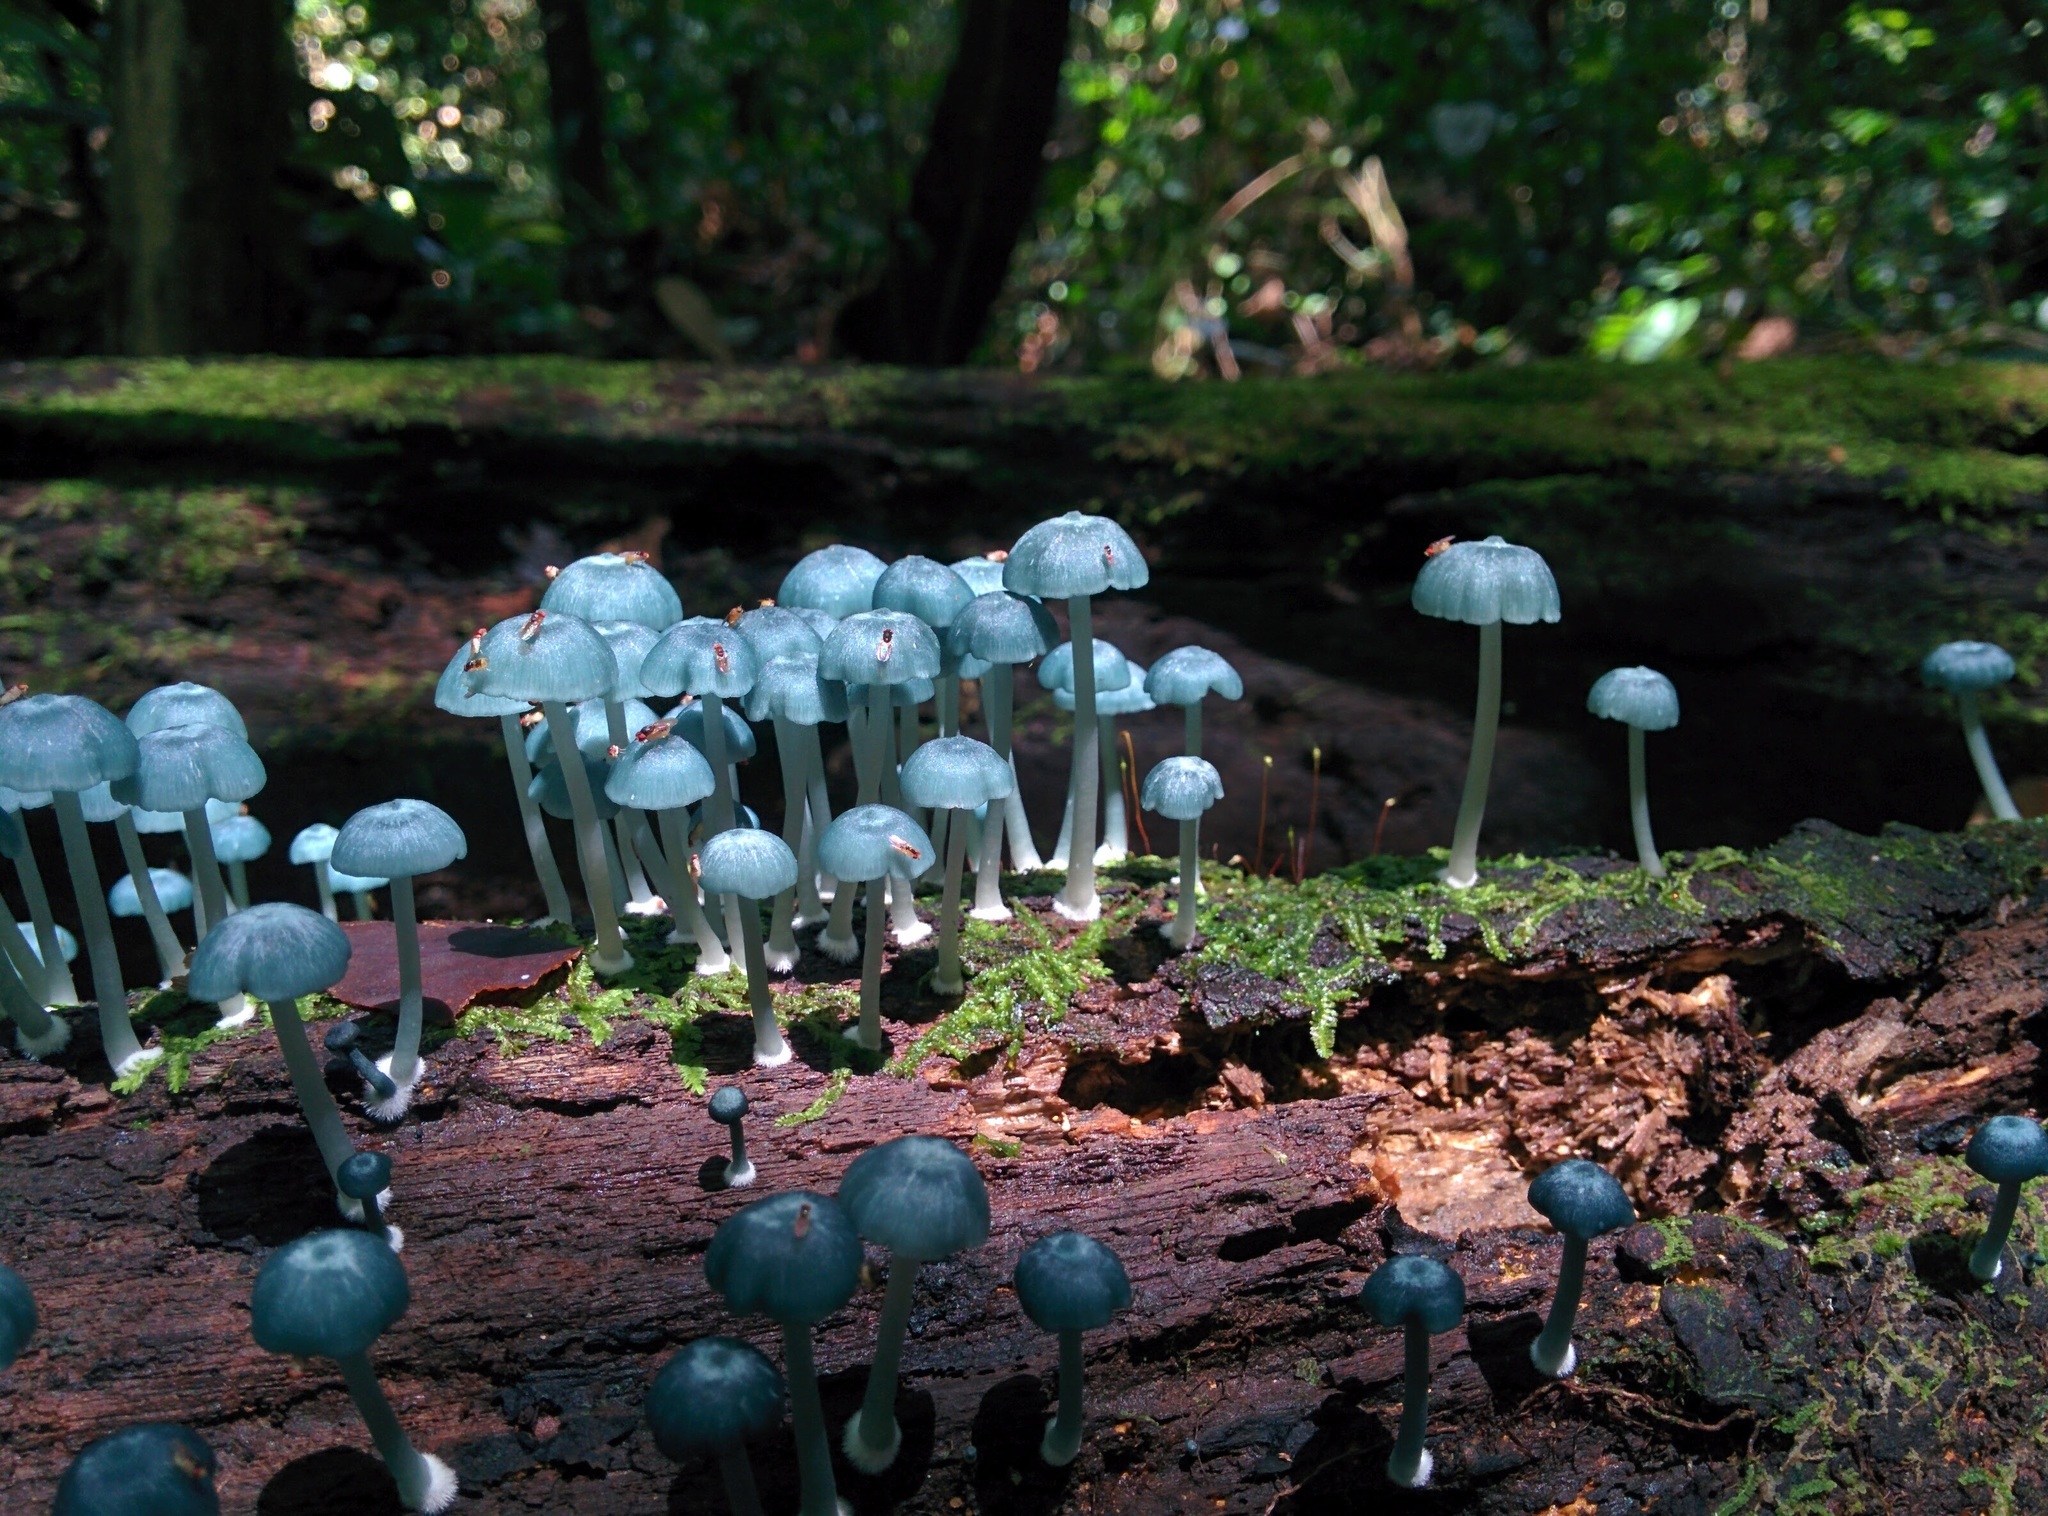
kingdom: Fungi
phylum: Basidiomycota
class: Agaricomycetes
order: Agaricales
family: Marasmiaceae
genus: Clitocybula
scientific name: Clitocybula azurea
